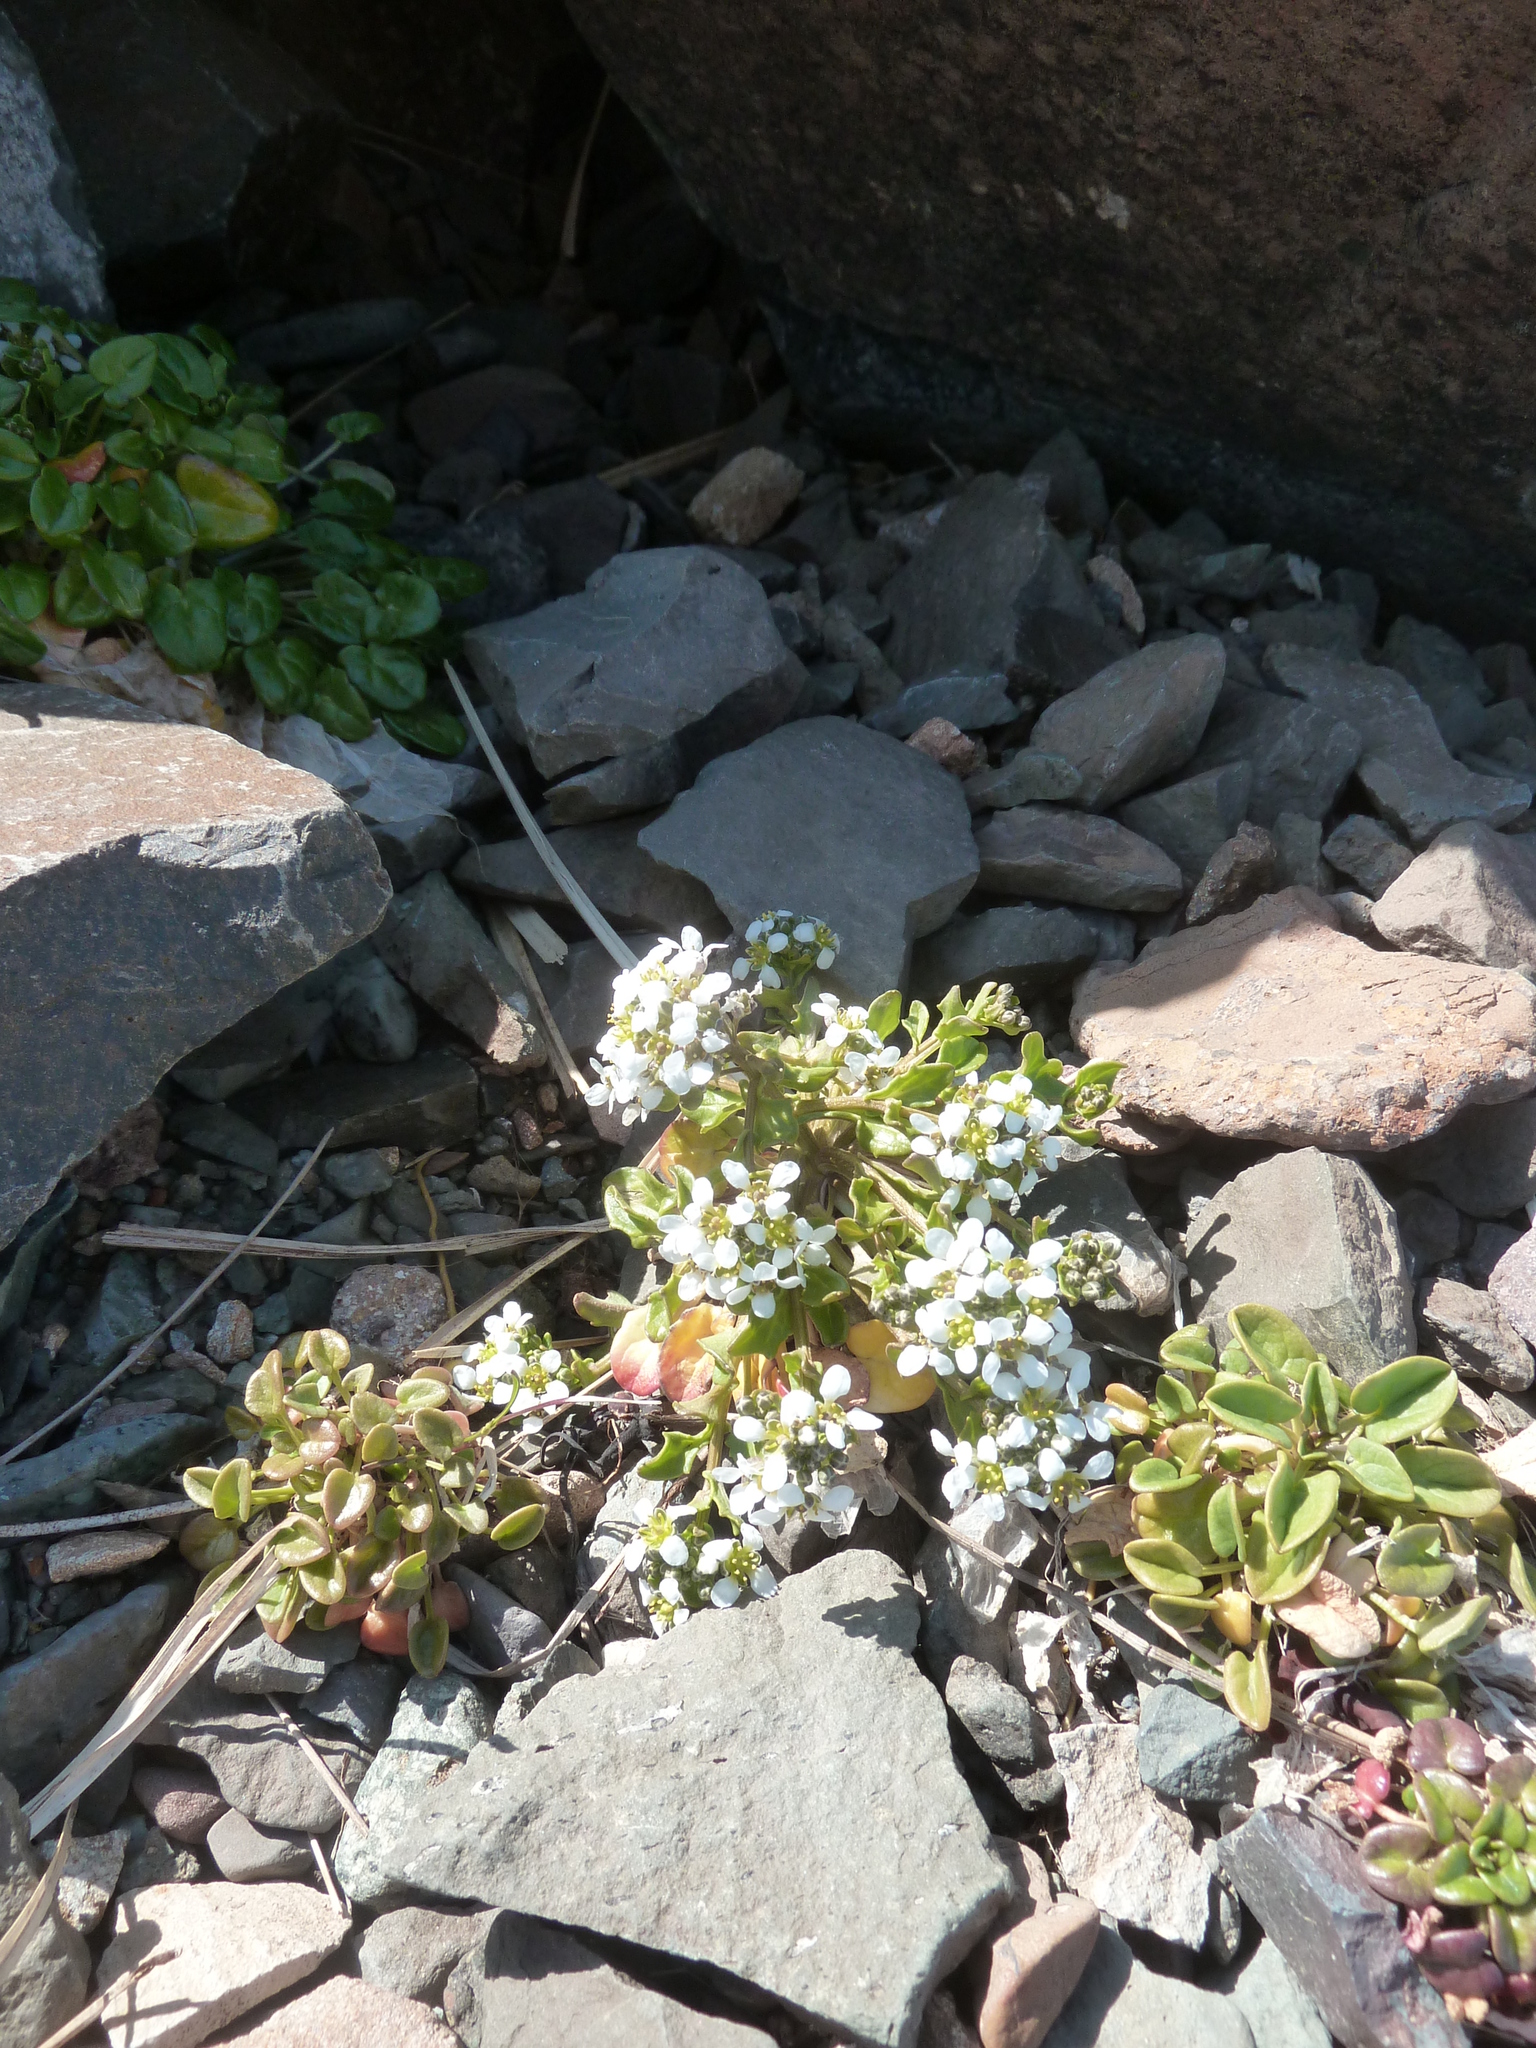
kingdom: Plantae
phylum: Tracheophyta
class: Magnoliopsida
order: Brassicales
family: Brassicaceae
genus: Cakile
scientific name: Cakile arctica
